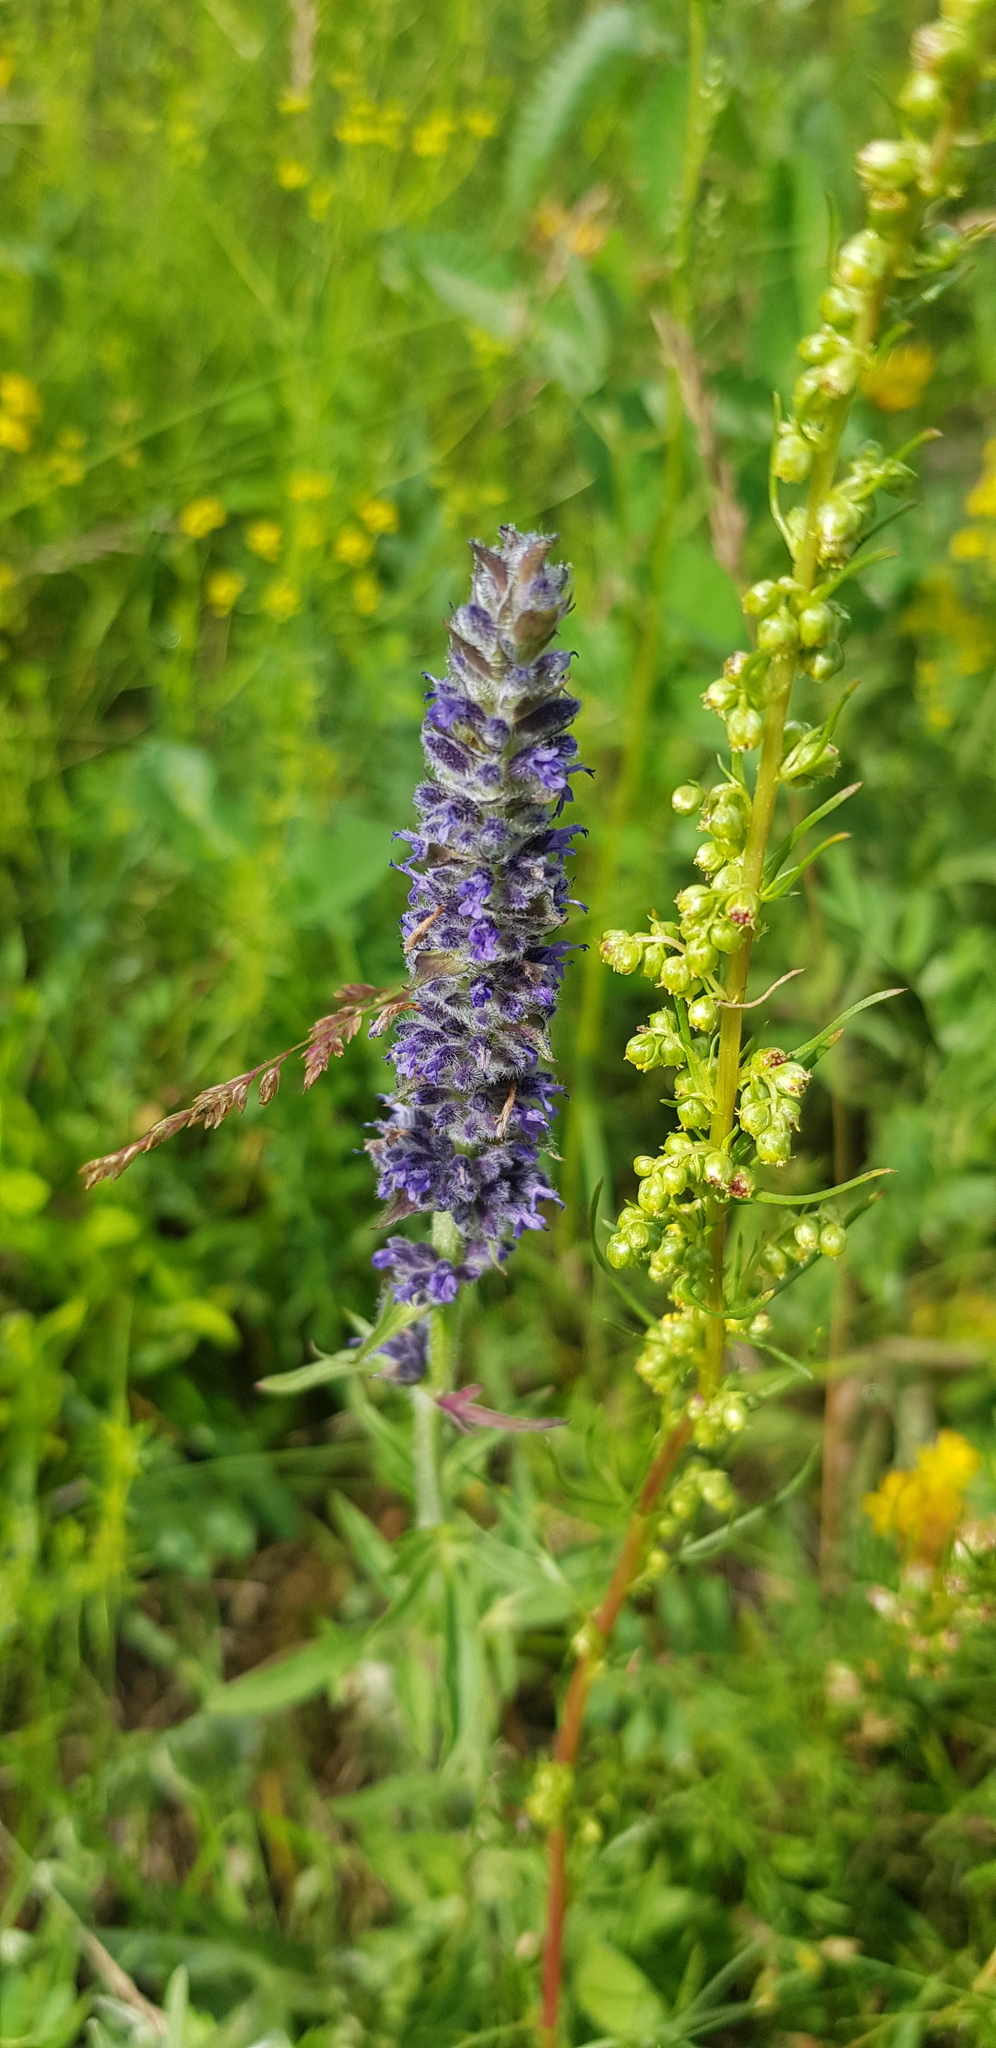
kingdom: Plantae
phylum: Tracheophyta
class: Magnoliopsida
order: Lamiales
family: Lamiaceae
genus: Nepeta
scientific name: Nepeta multifida
